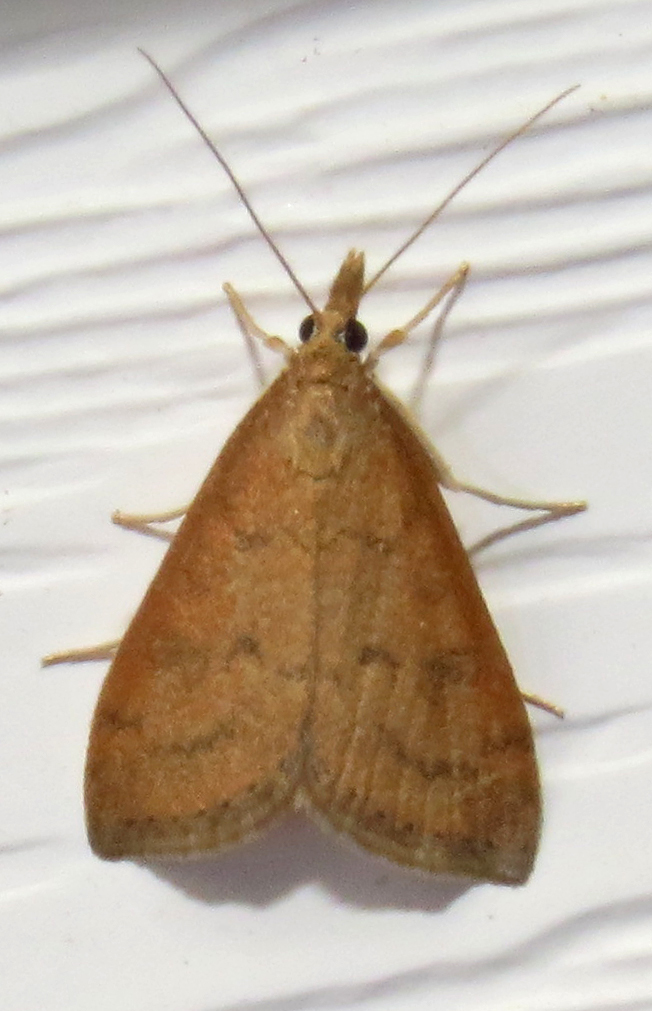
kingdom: Animalia
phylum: Arthropoda
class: Insecta
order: Lepidoptera
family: Crambidae
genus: Udea
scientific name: Udea rubigalis
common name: Celery leaftier moth
